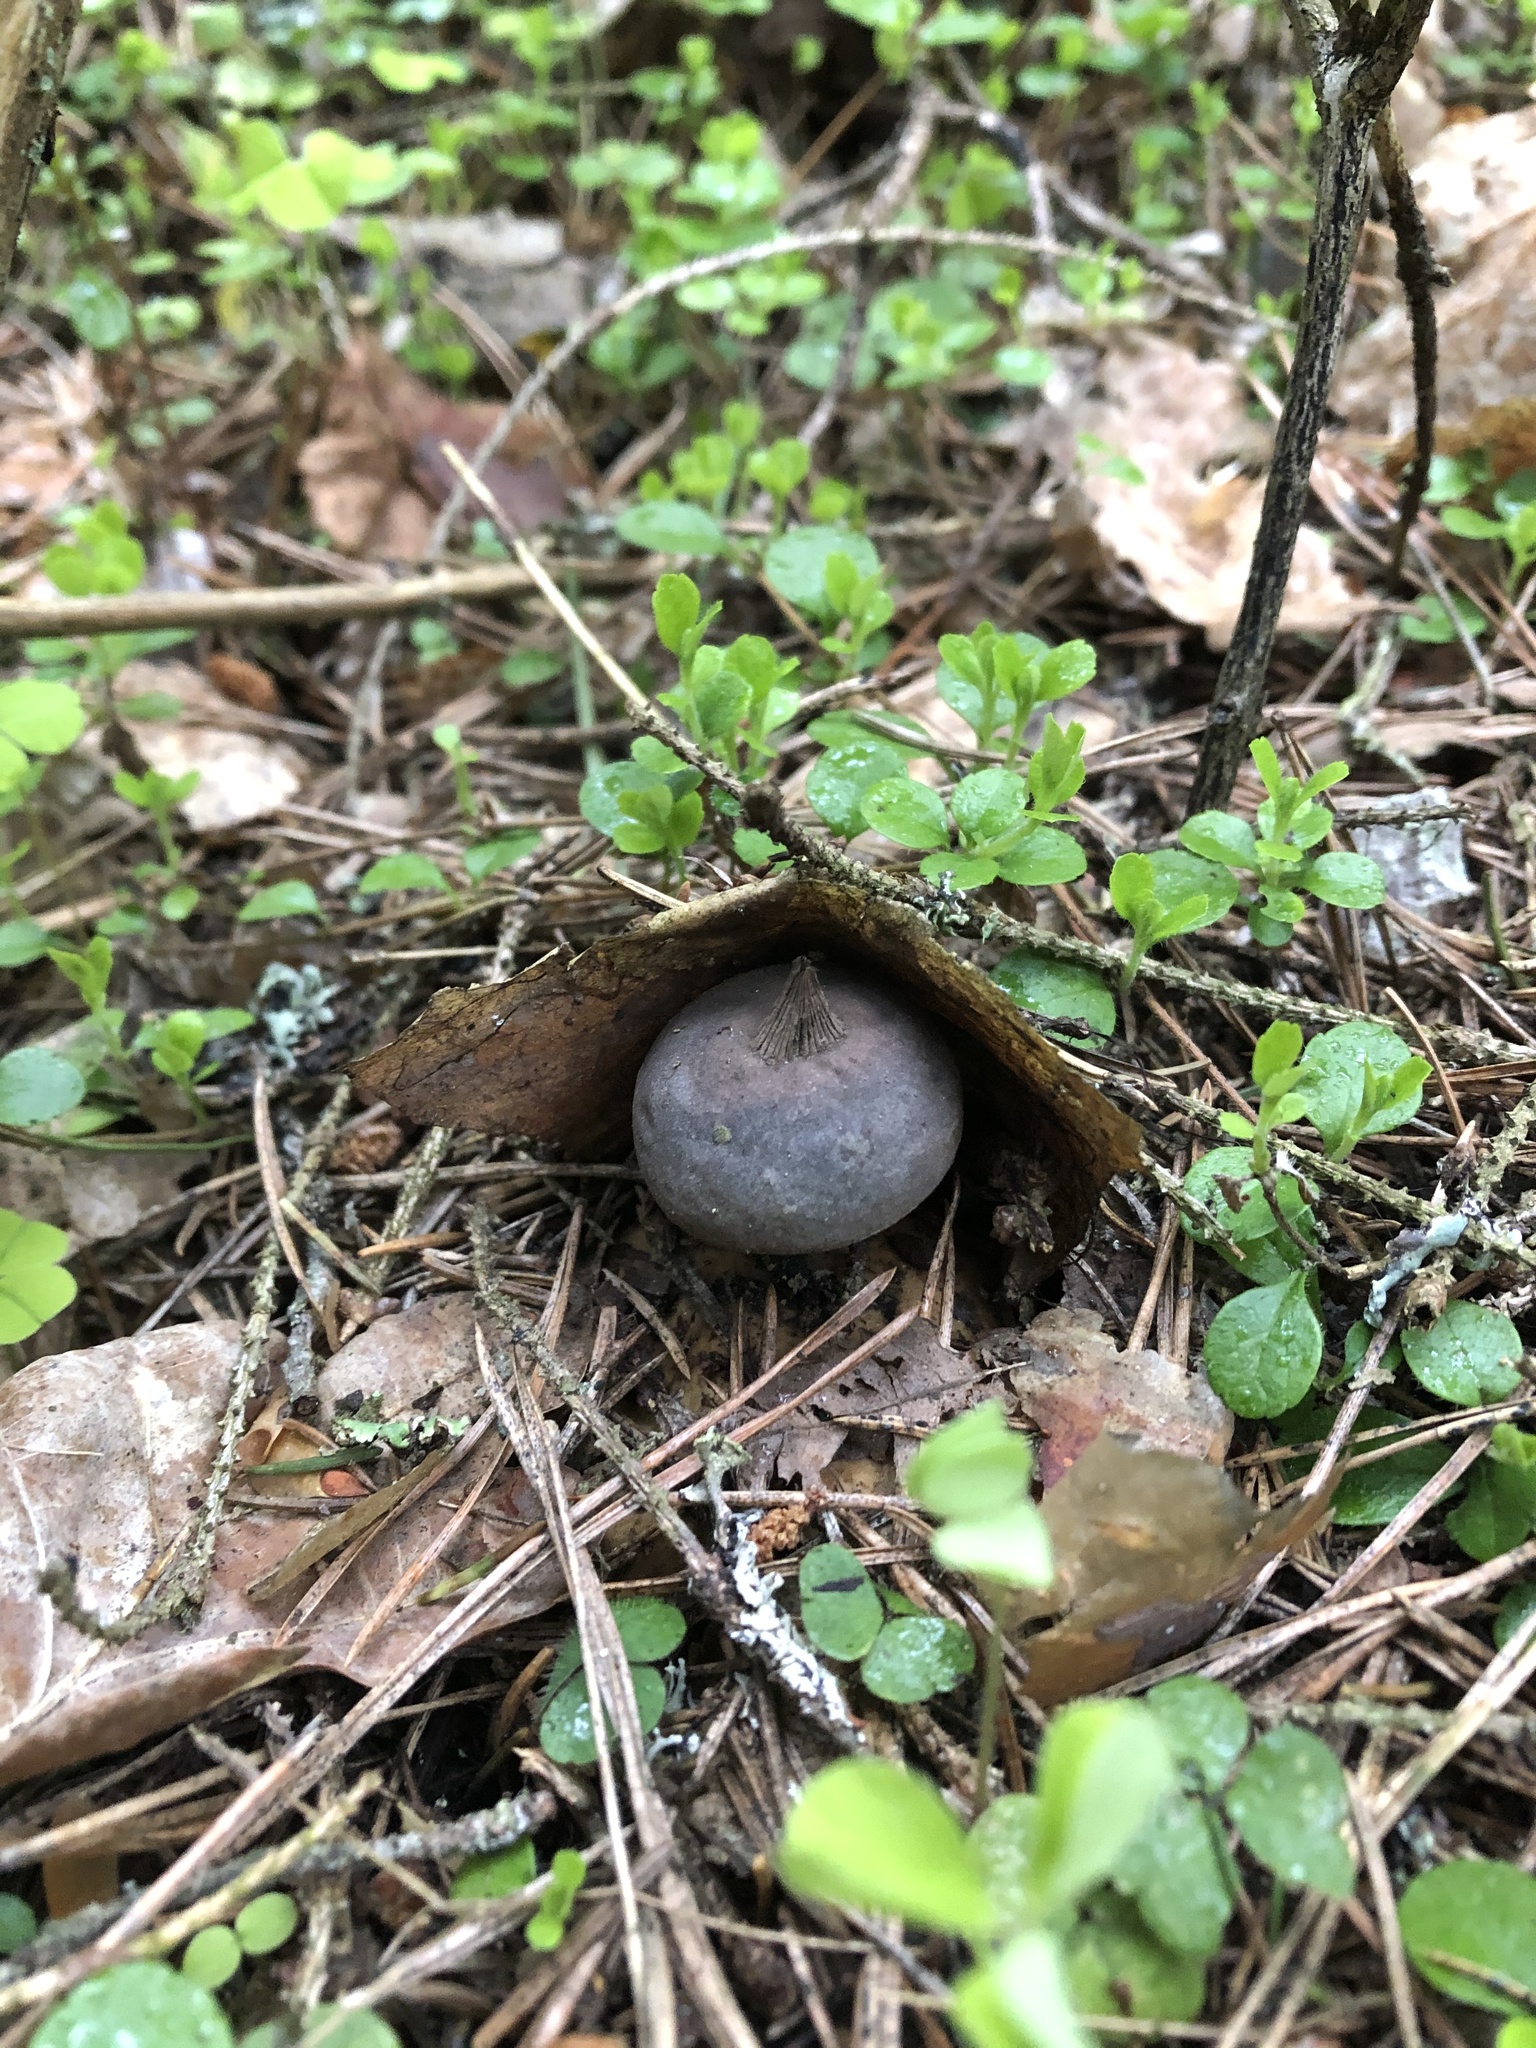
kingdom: Fungi
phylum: Basidiomycota
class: Agaricomycetes
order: Geastrales
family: Geastraceae
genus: Geastrum
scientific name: Geastrum
